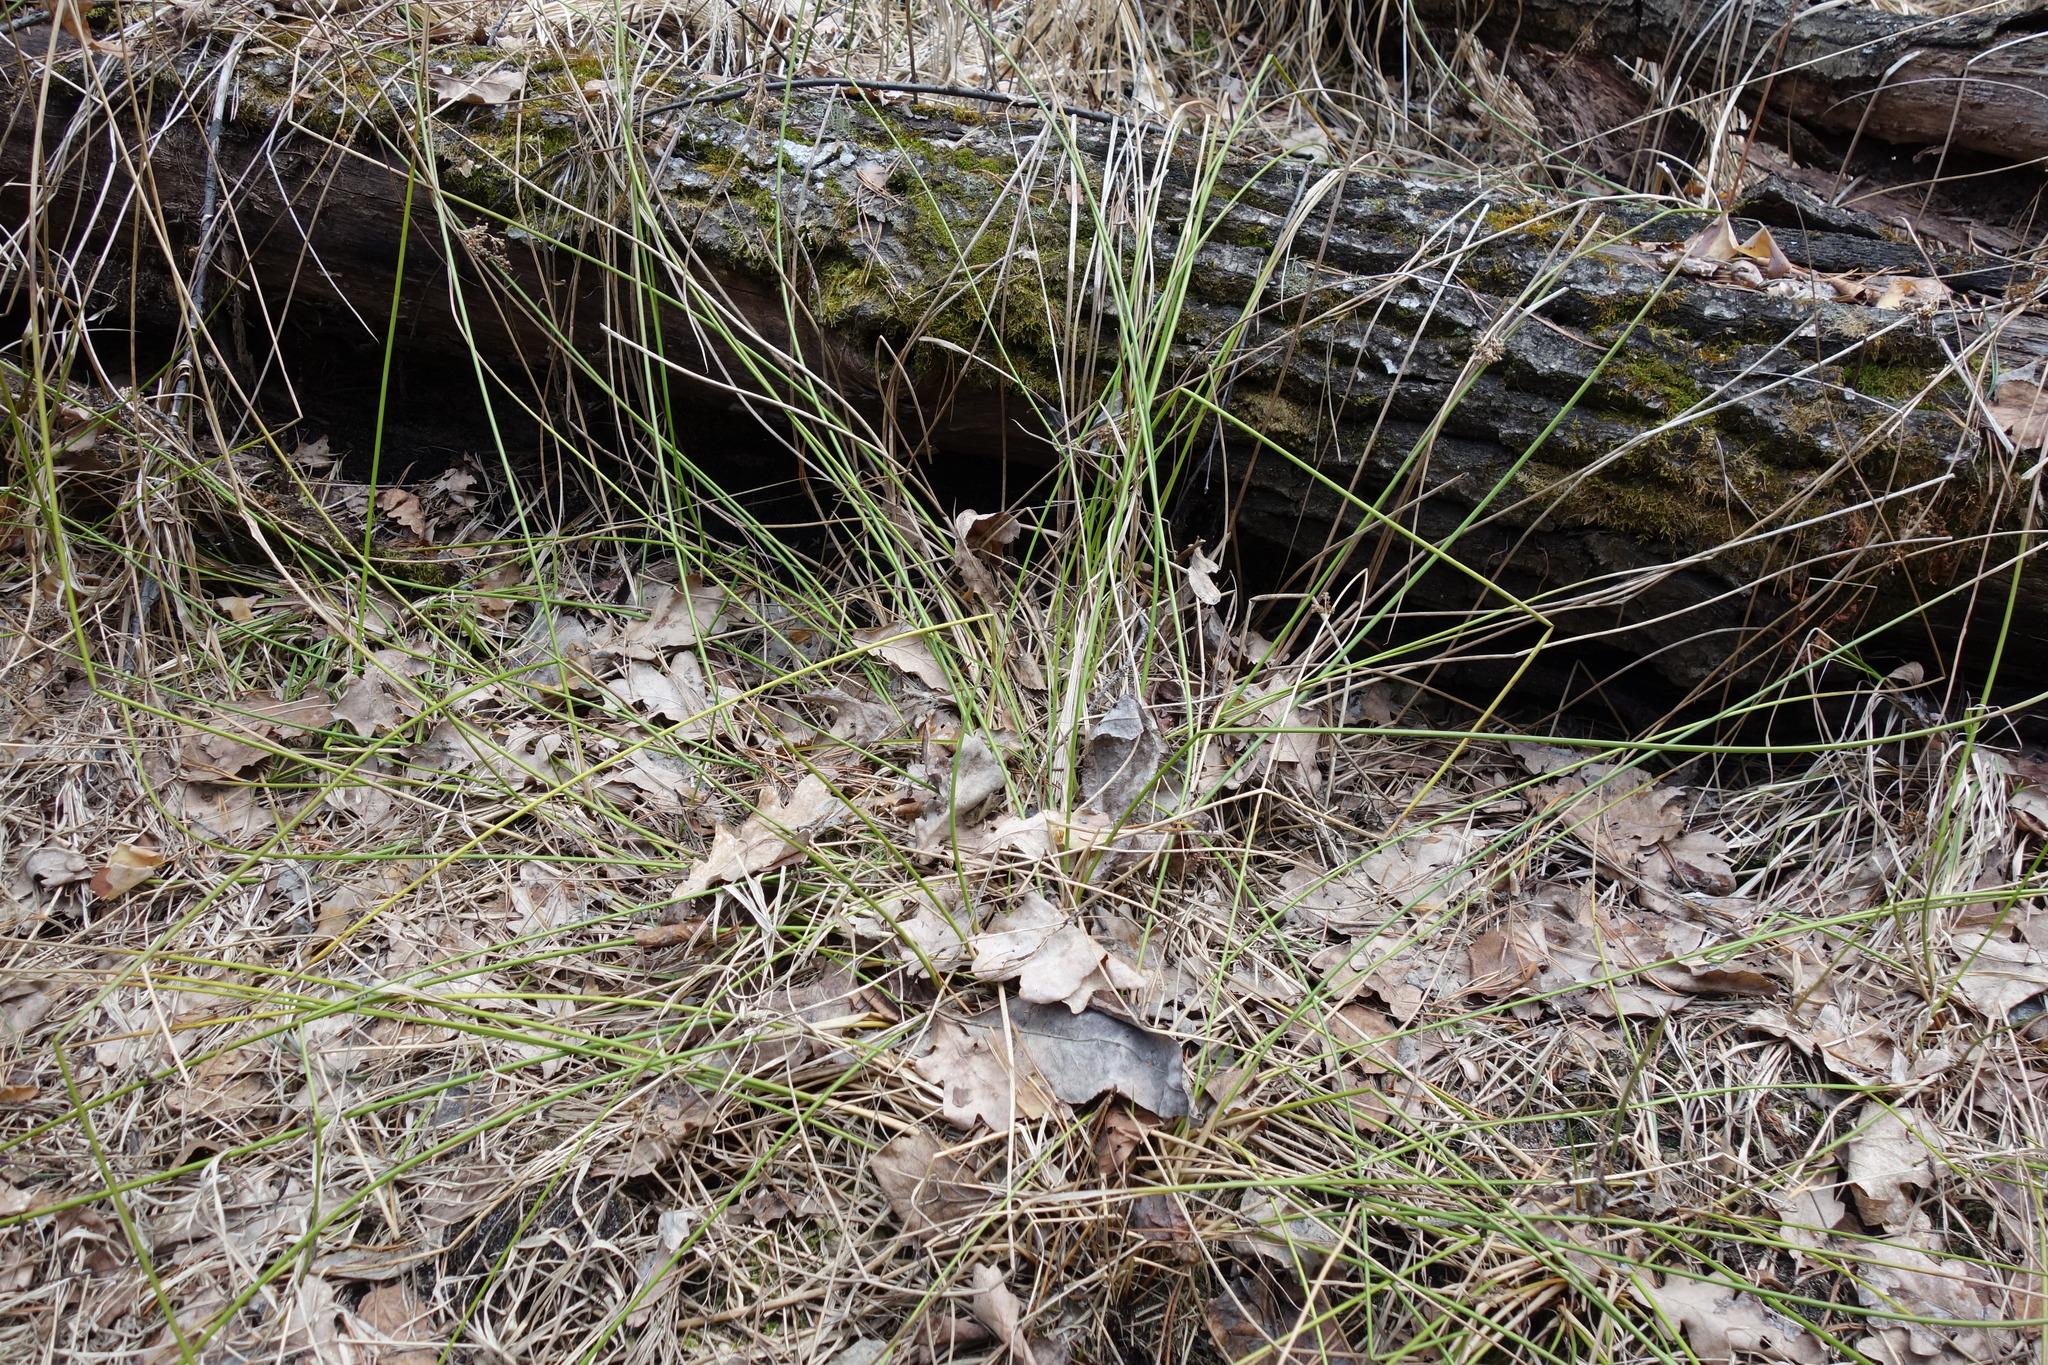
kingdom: Plantae
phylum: Tracheophyta
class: Liliopsida
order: Poales
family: Juncaceae
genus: Juncus
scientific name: Juncus effusus
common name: Soft rush
